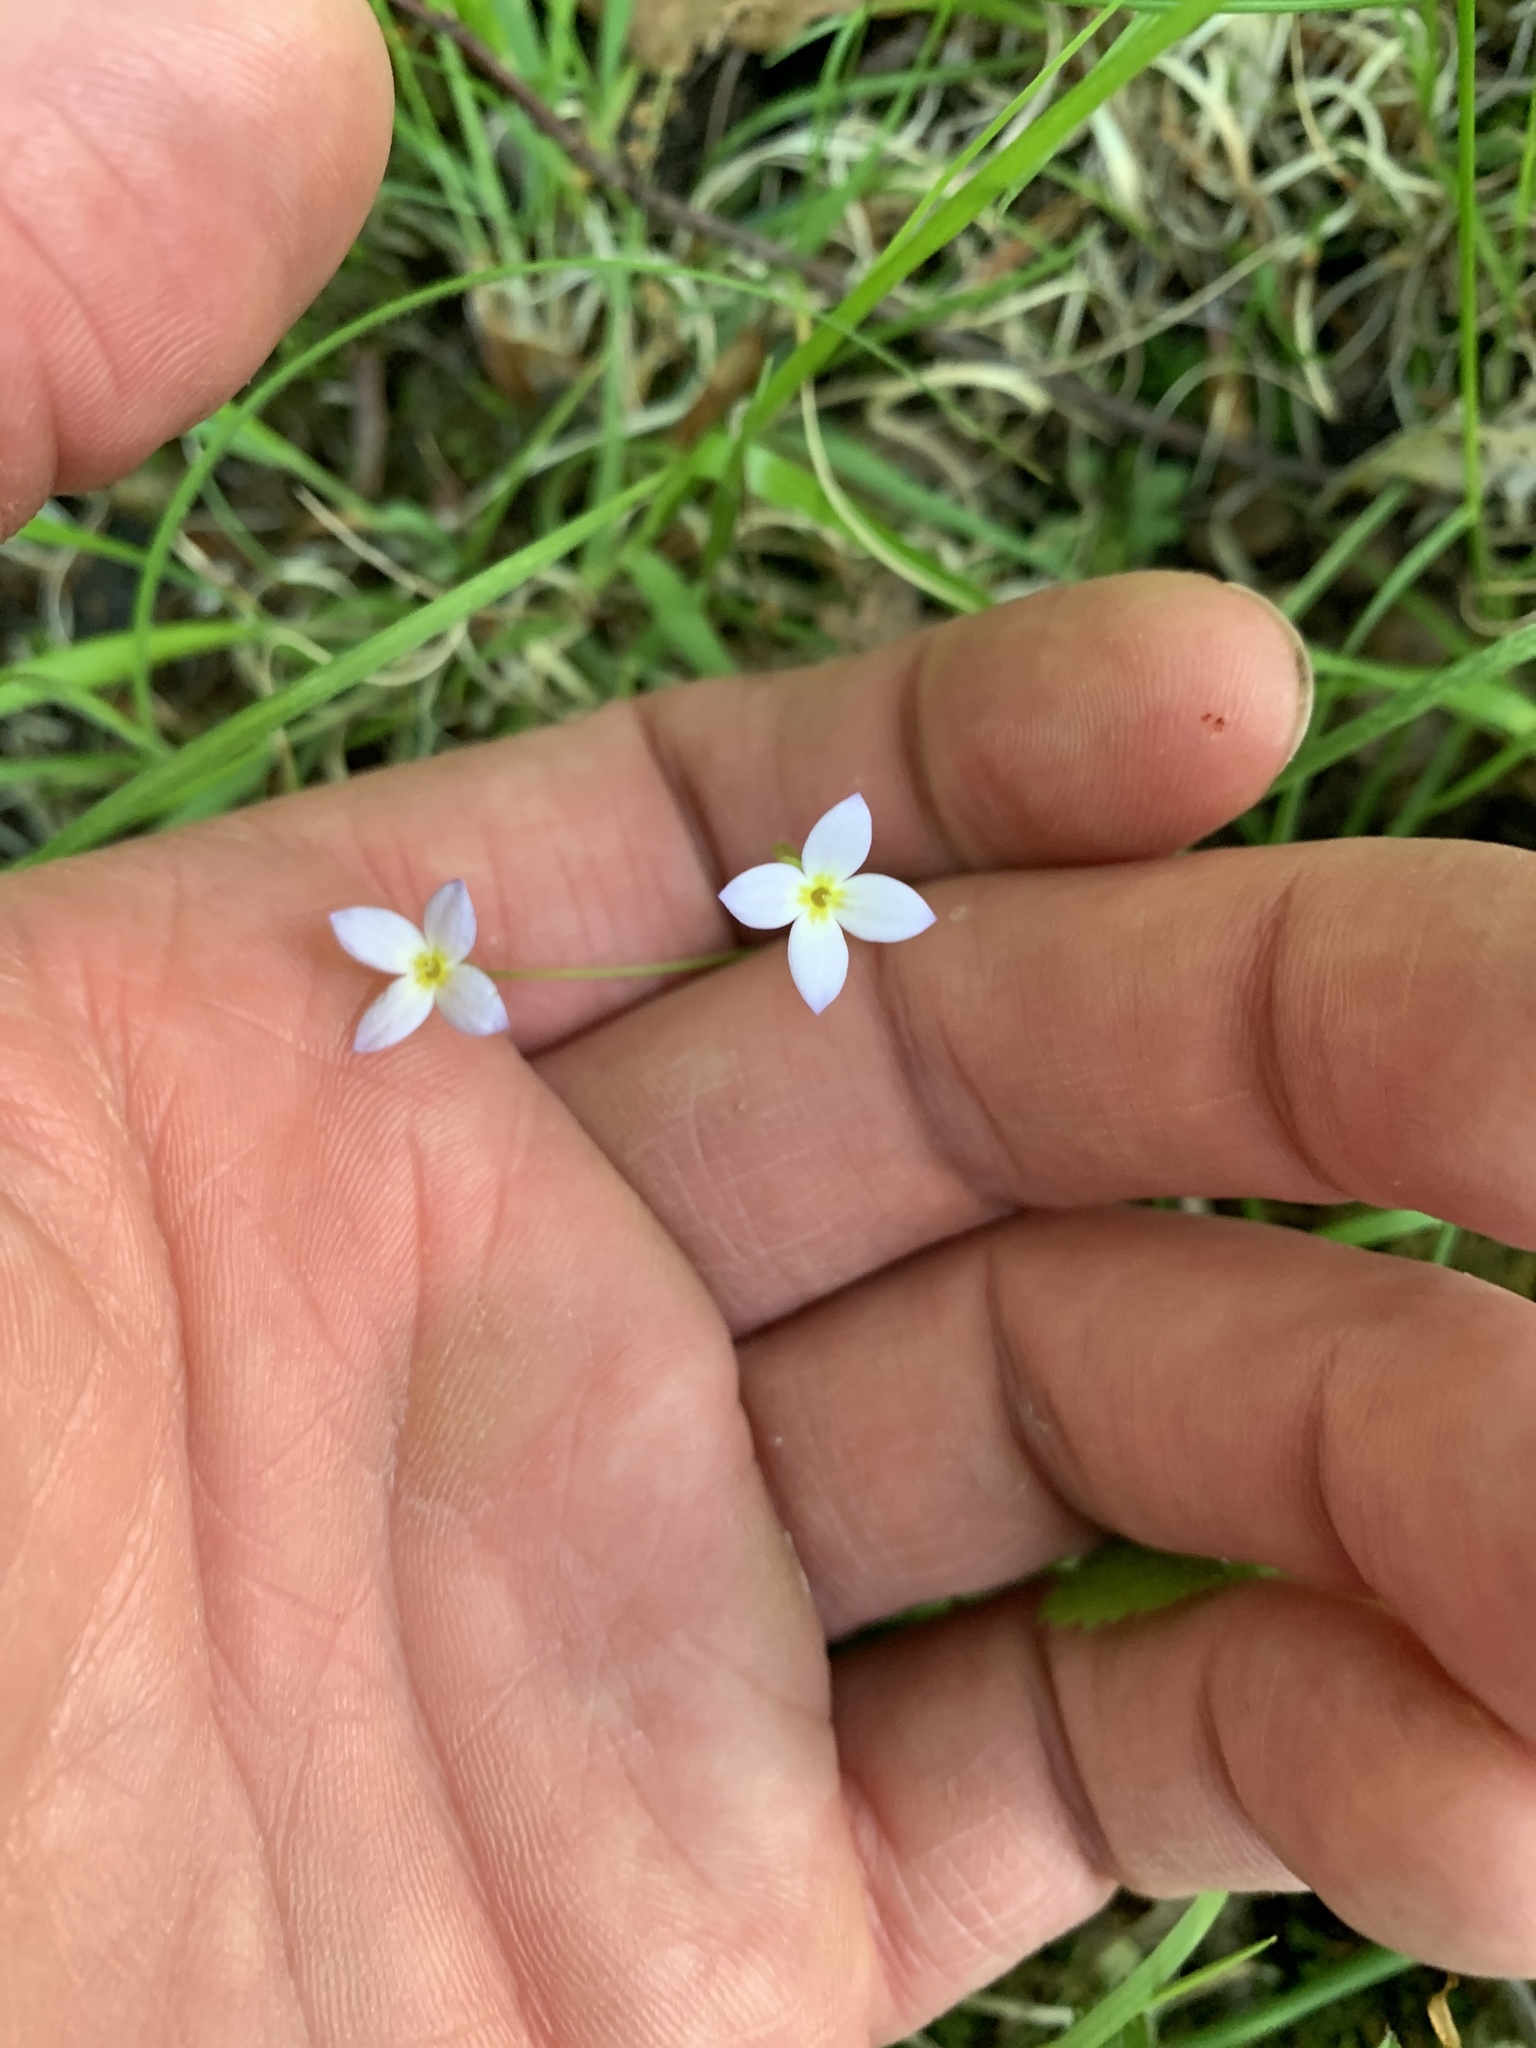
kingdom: Plantae
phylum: Tracheophyta
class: Magnoliopsida
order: Gentianales
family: Rubiaceae
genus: Houstonia
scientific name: Houstonia caerulea
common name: Bluets
